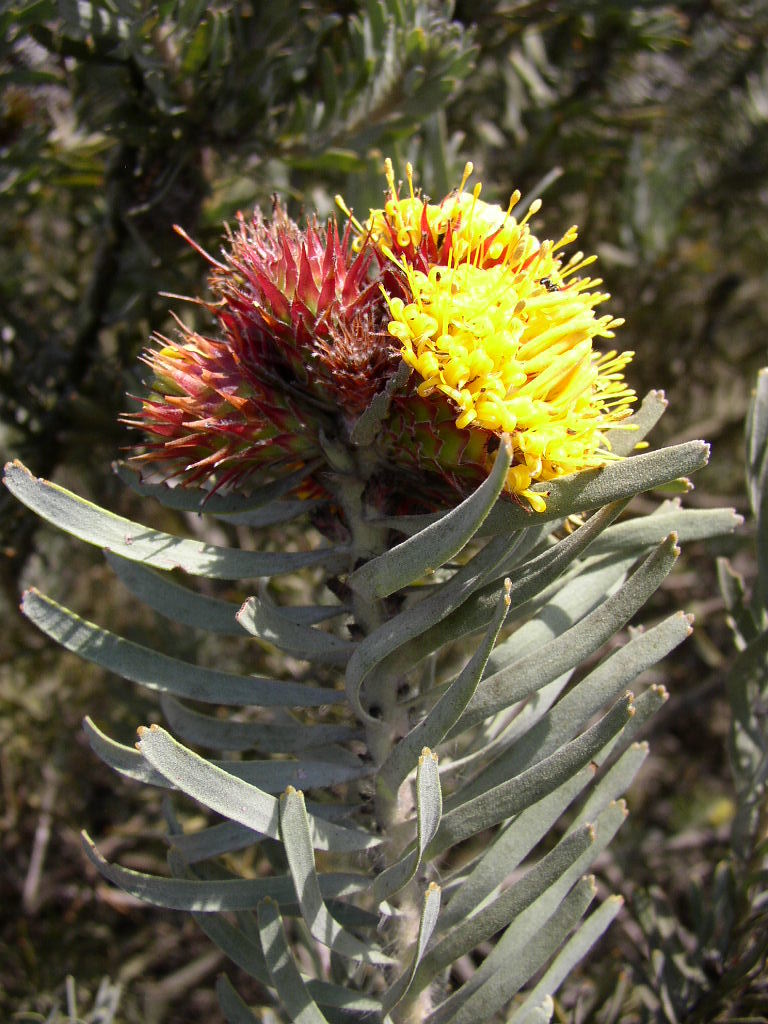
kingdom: Plantae
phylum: Tracheophyta
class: Magnoliopsida
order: Proteales
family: Proteaceae
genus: Leucospermum
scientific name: Leucospermum parile
